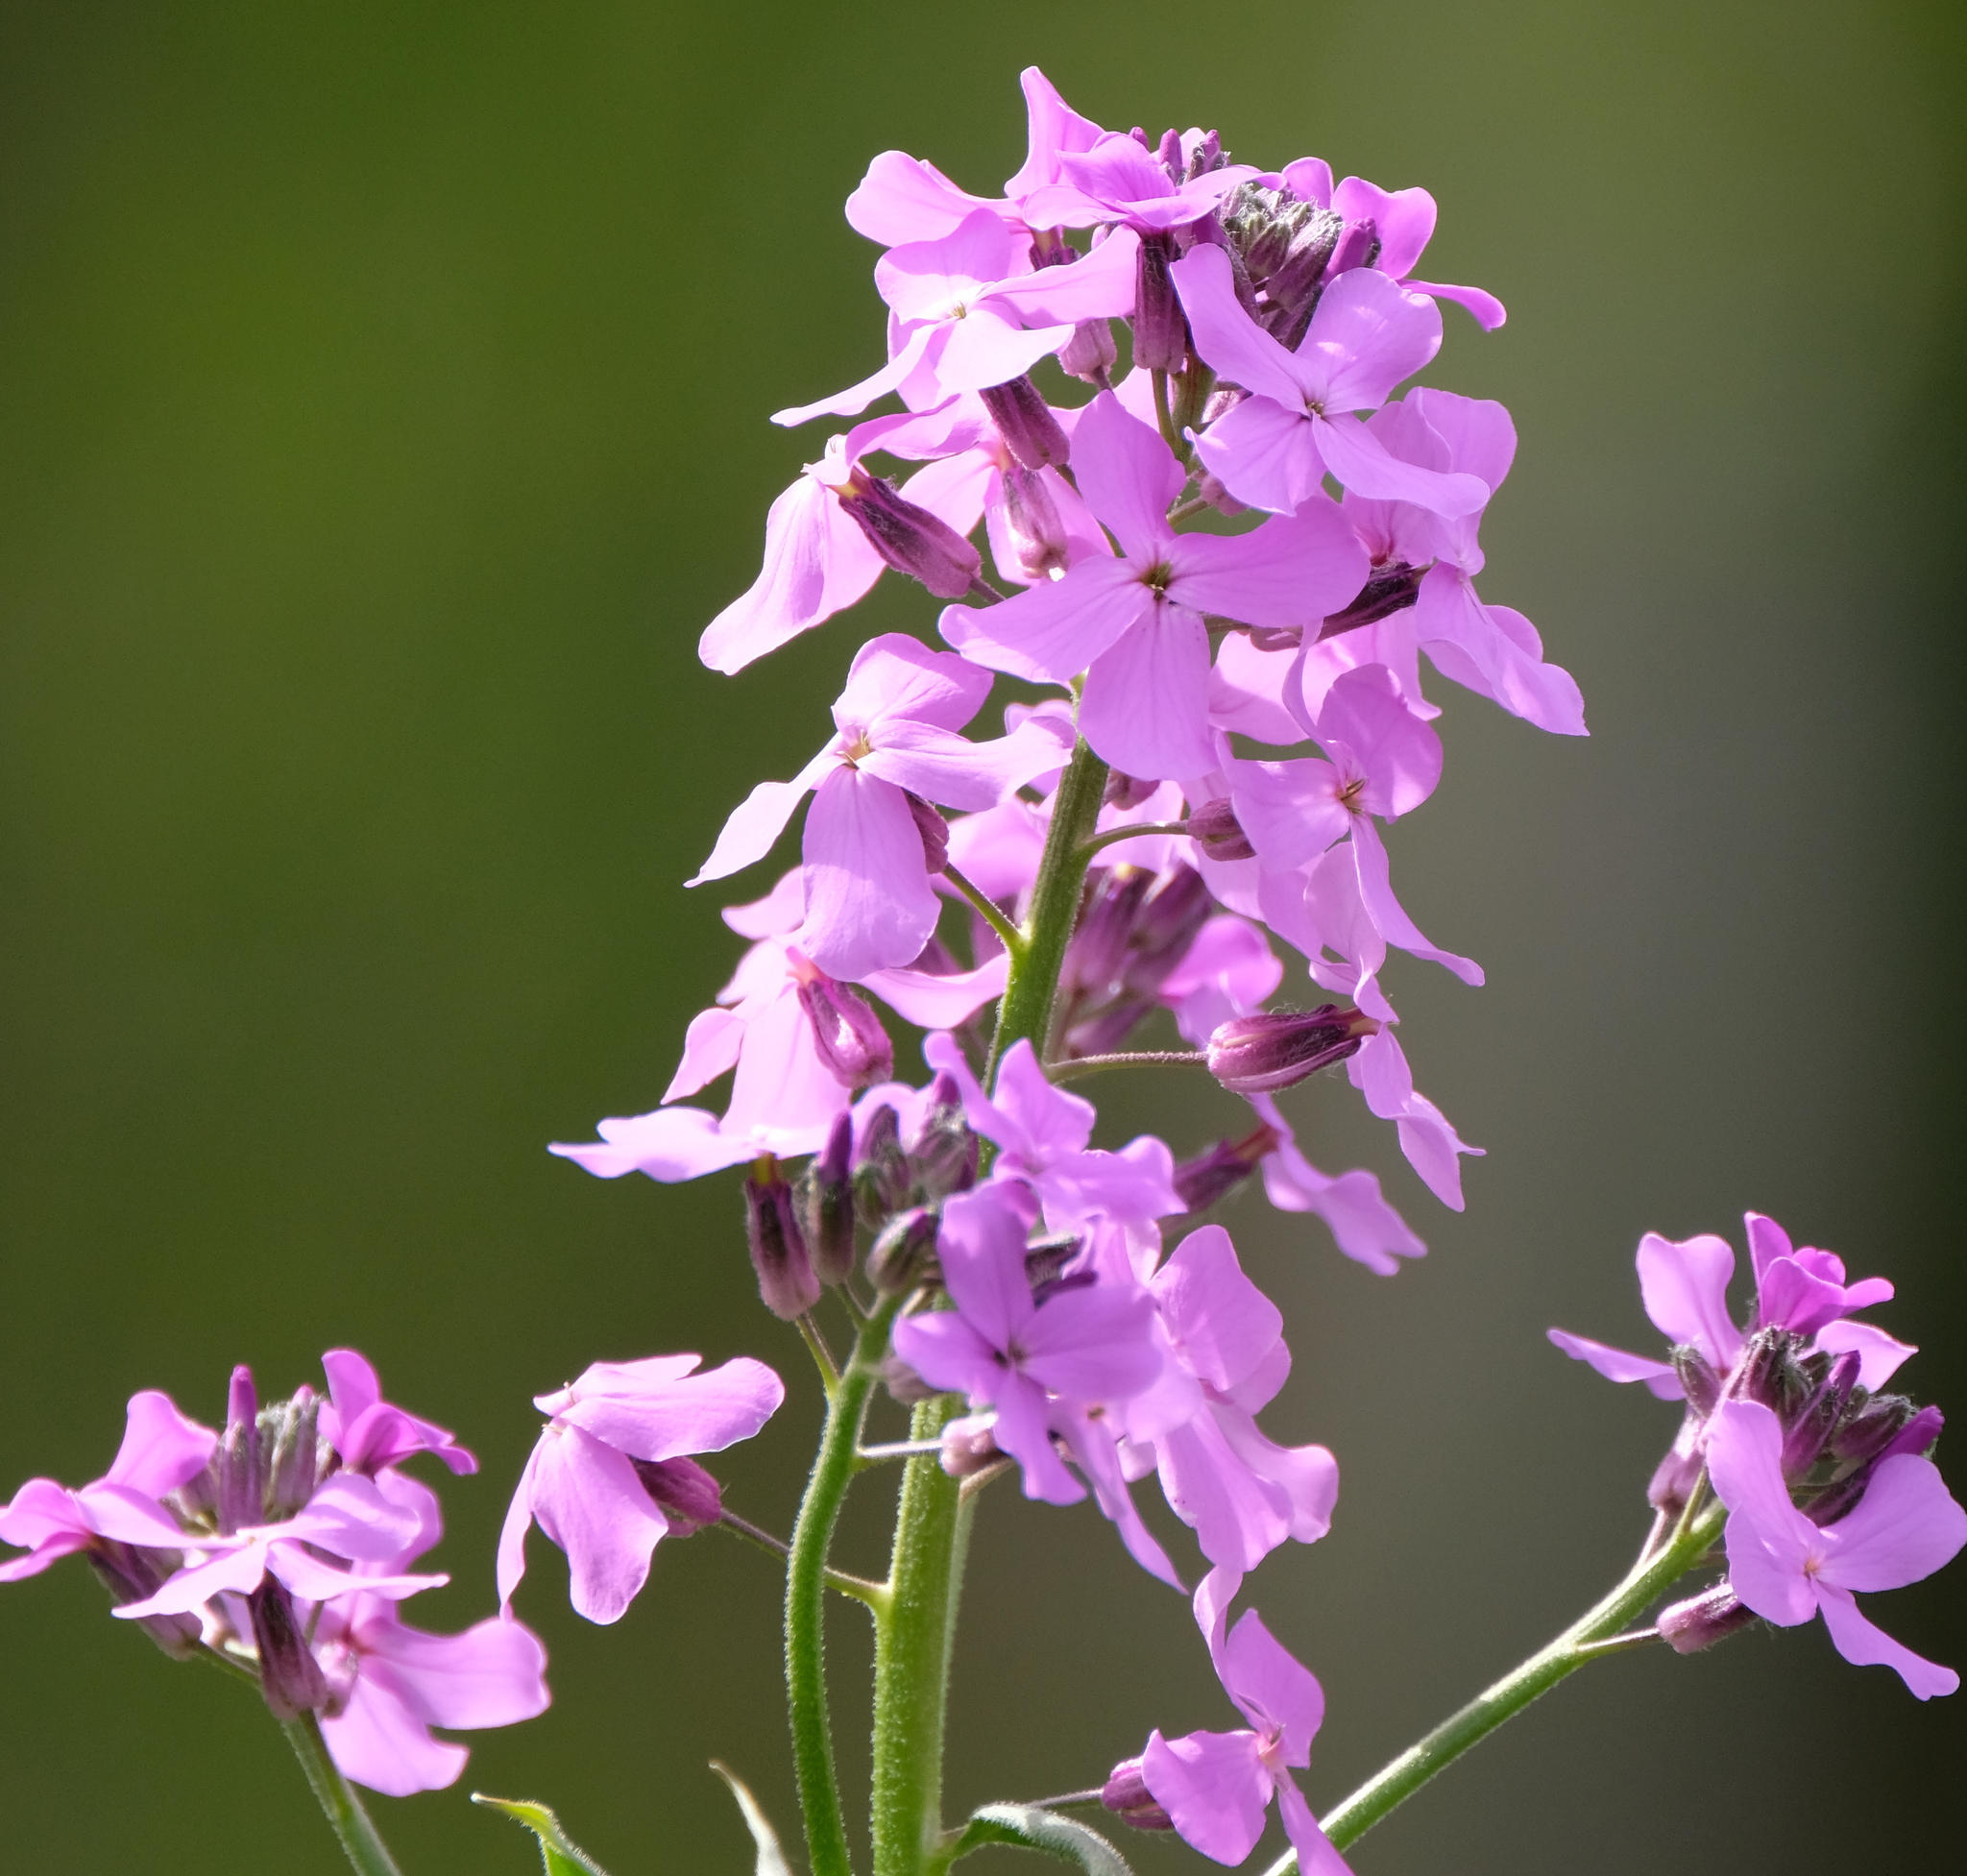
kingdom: Plantae
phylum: Tracheophyta
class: Magnoliopsida
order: Brassicales
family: Brassicaceae
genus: Hesperis
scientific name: Hesperis matronalis
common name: Dame's-violet
